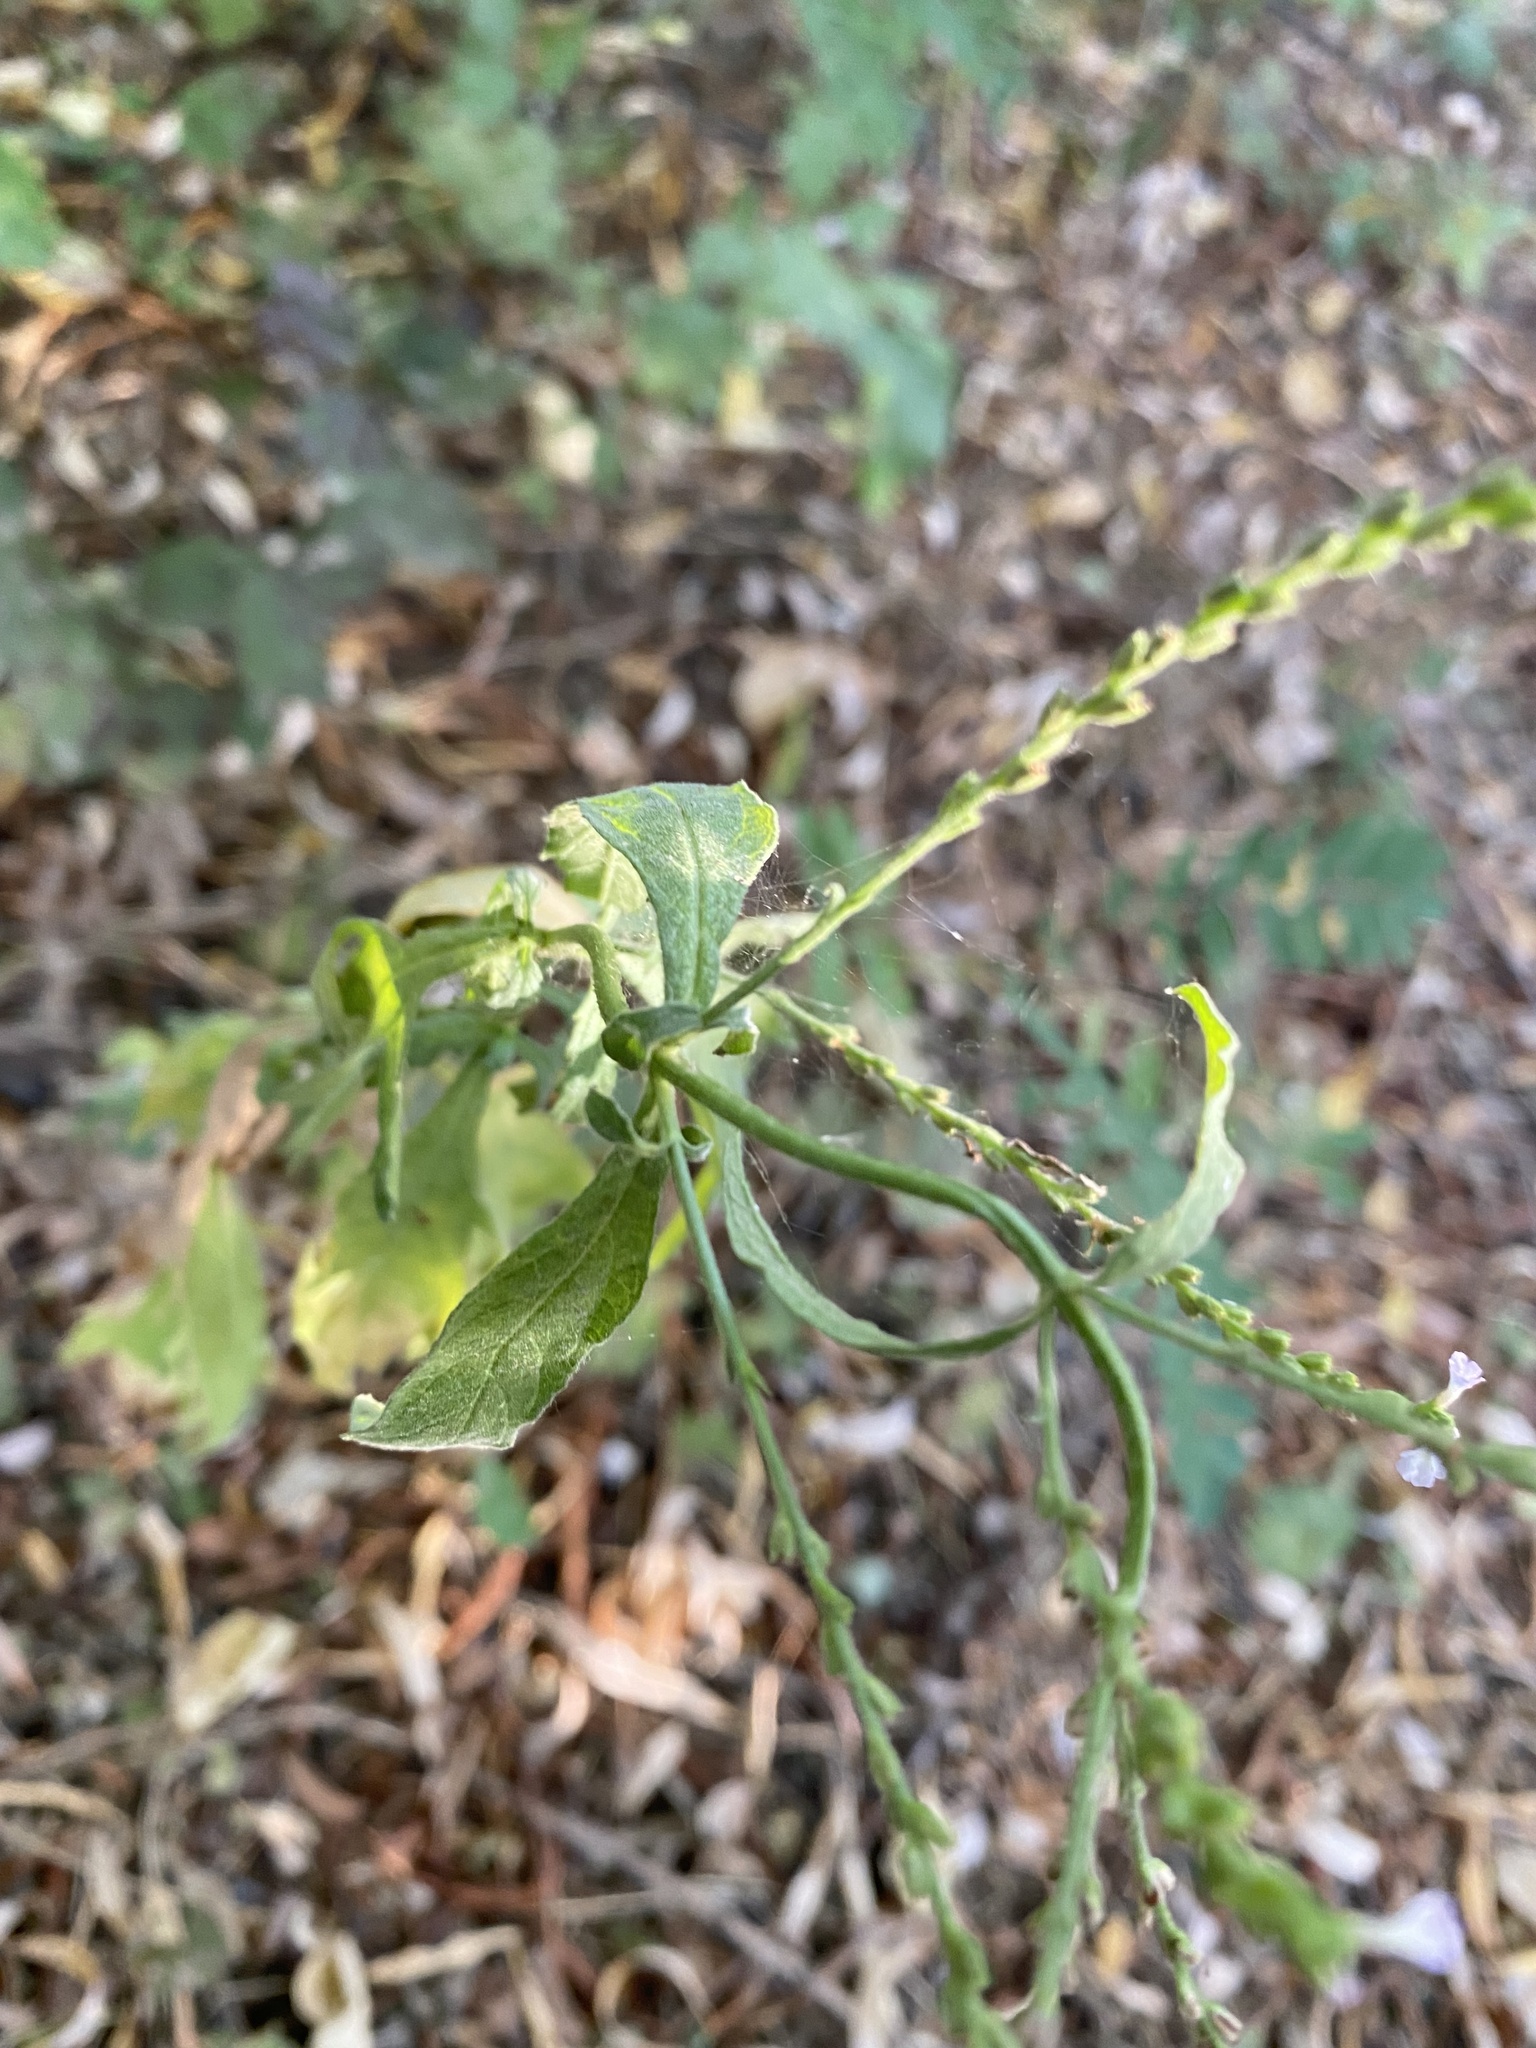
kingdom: Plantae
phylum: Tracheophyta
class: Magnoliopsida
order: Lamiales
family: Verbenaceae
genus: Verbena
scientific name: Verbena officinalis
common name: Vervain
